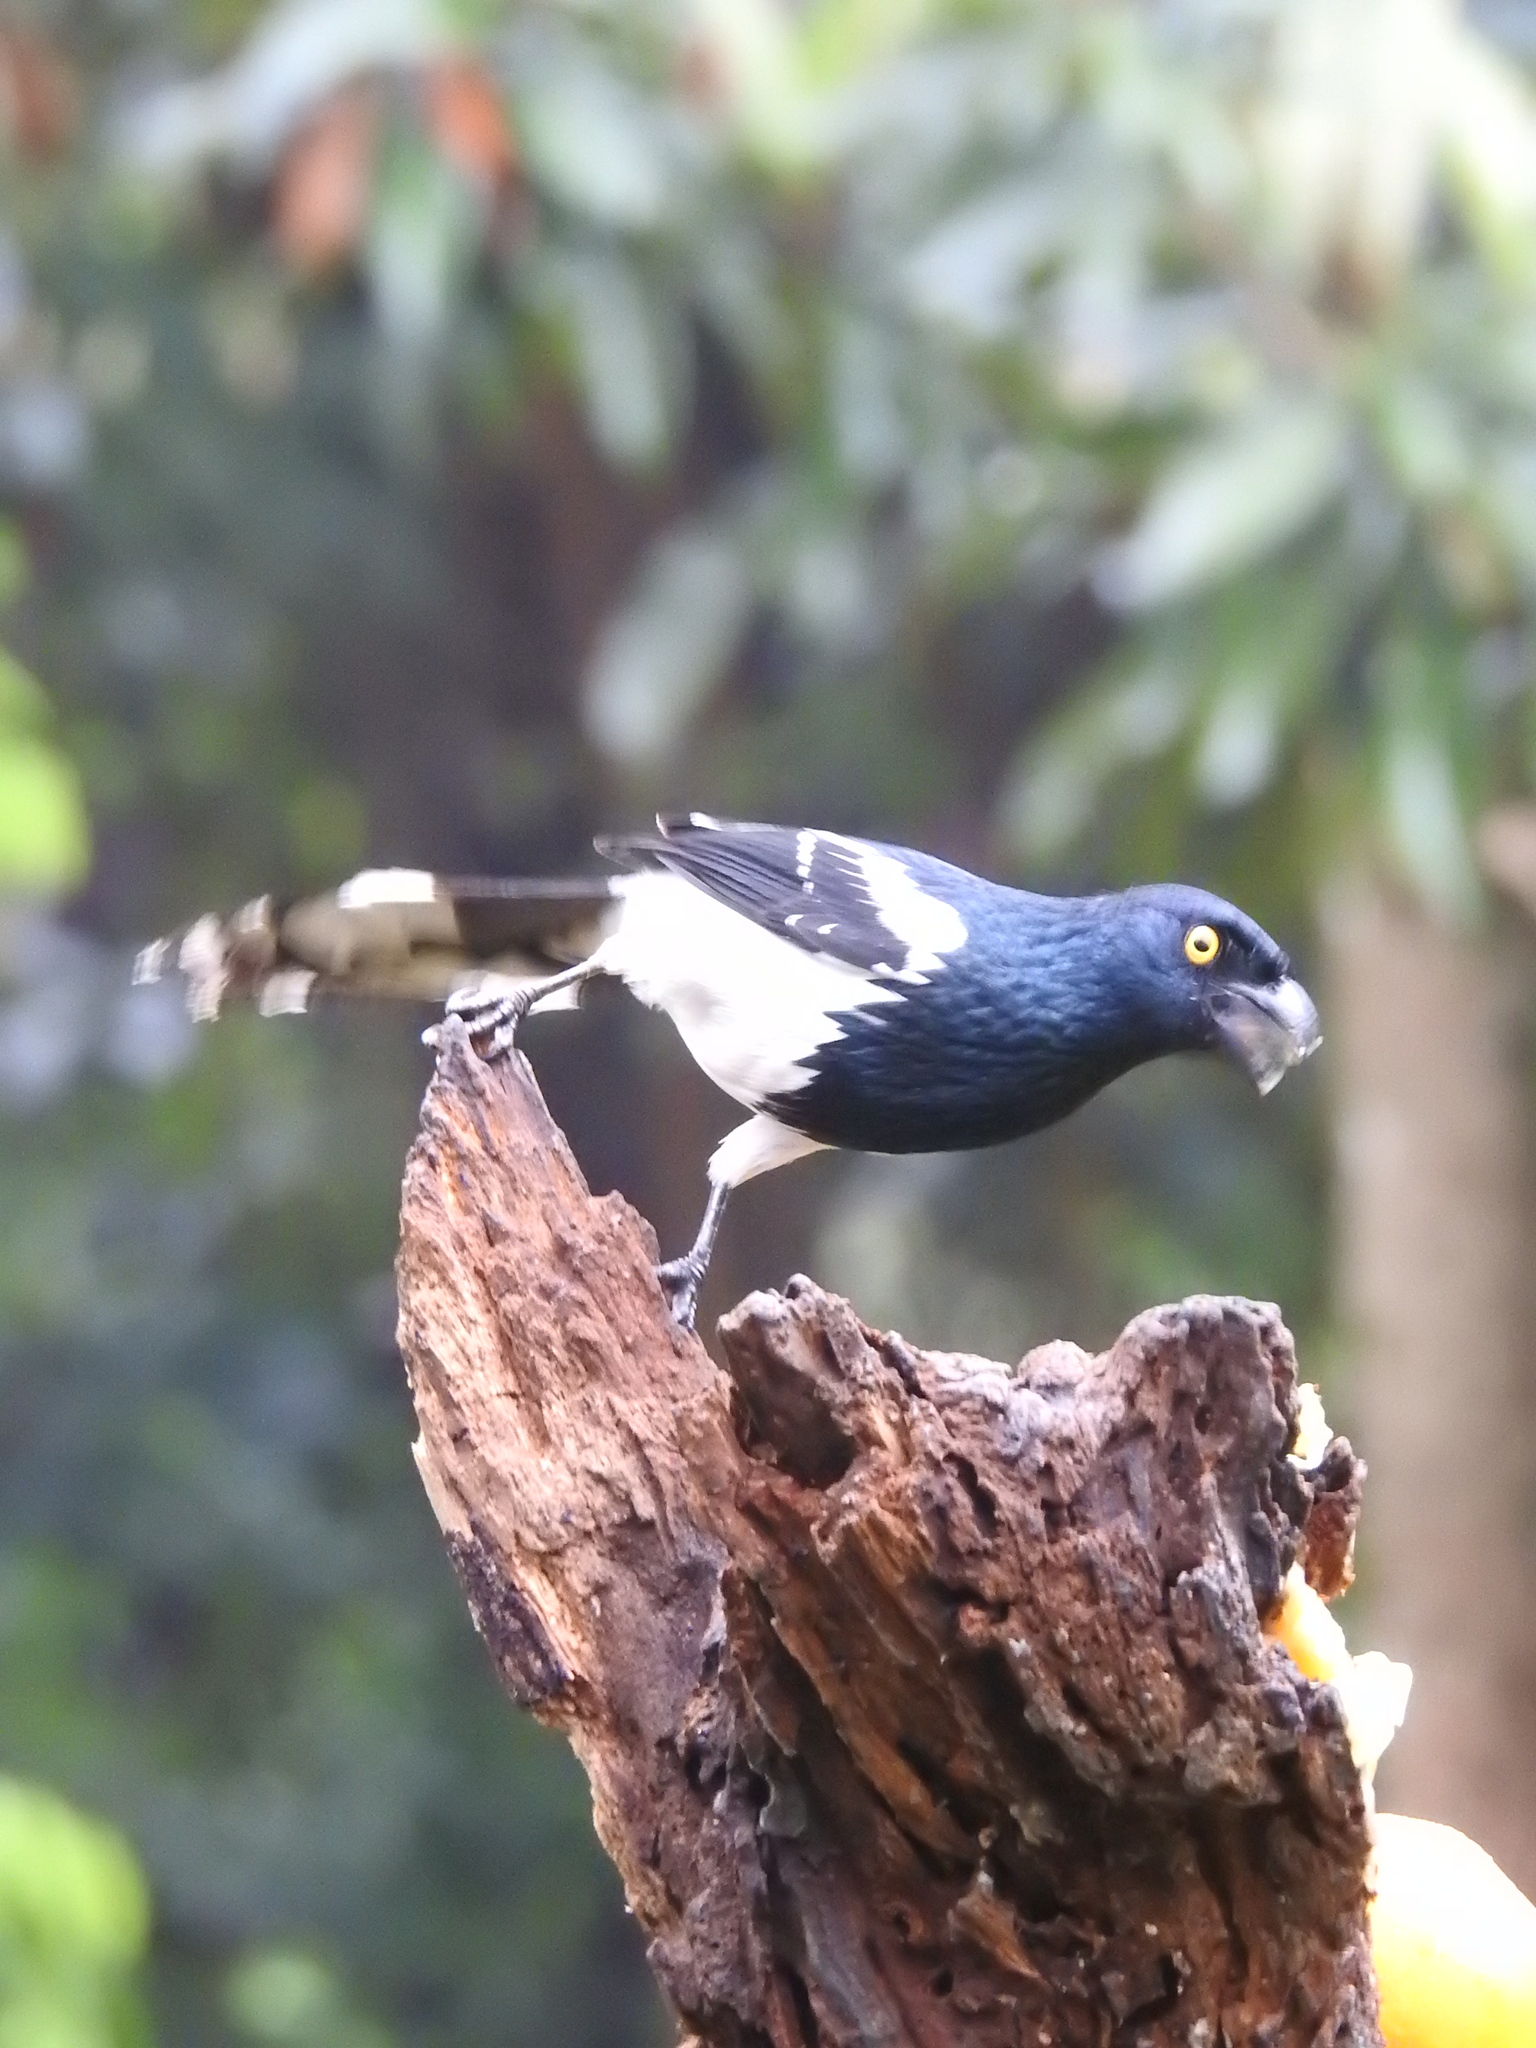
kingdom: Animalia
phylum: Chordata
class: Aves
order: Passeriformes
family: Thraupidae
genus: Cissopis
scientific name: Cissopis leverianus
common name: Magpie tanager
